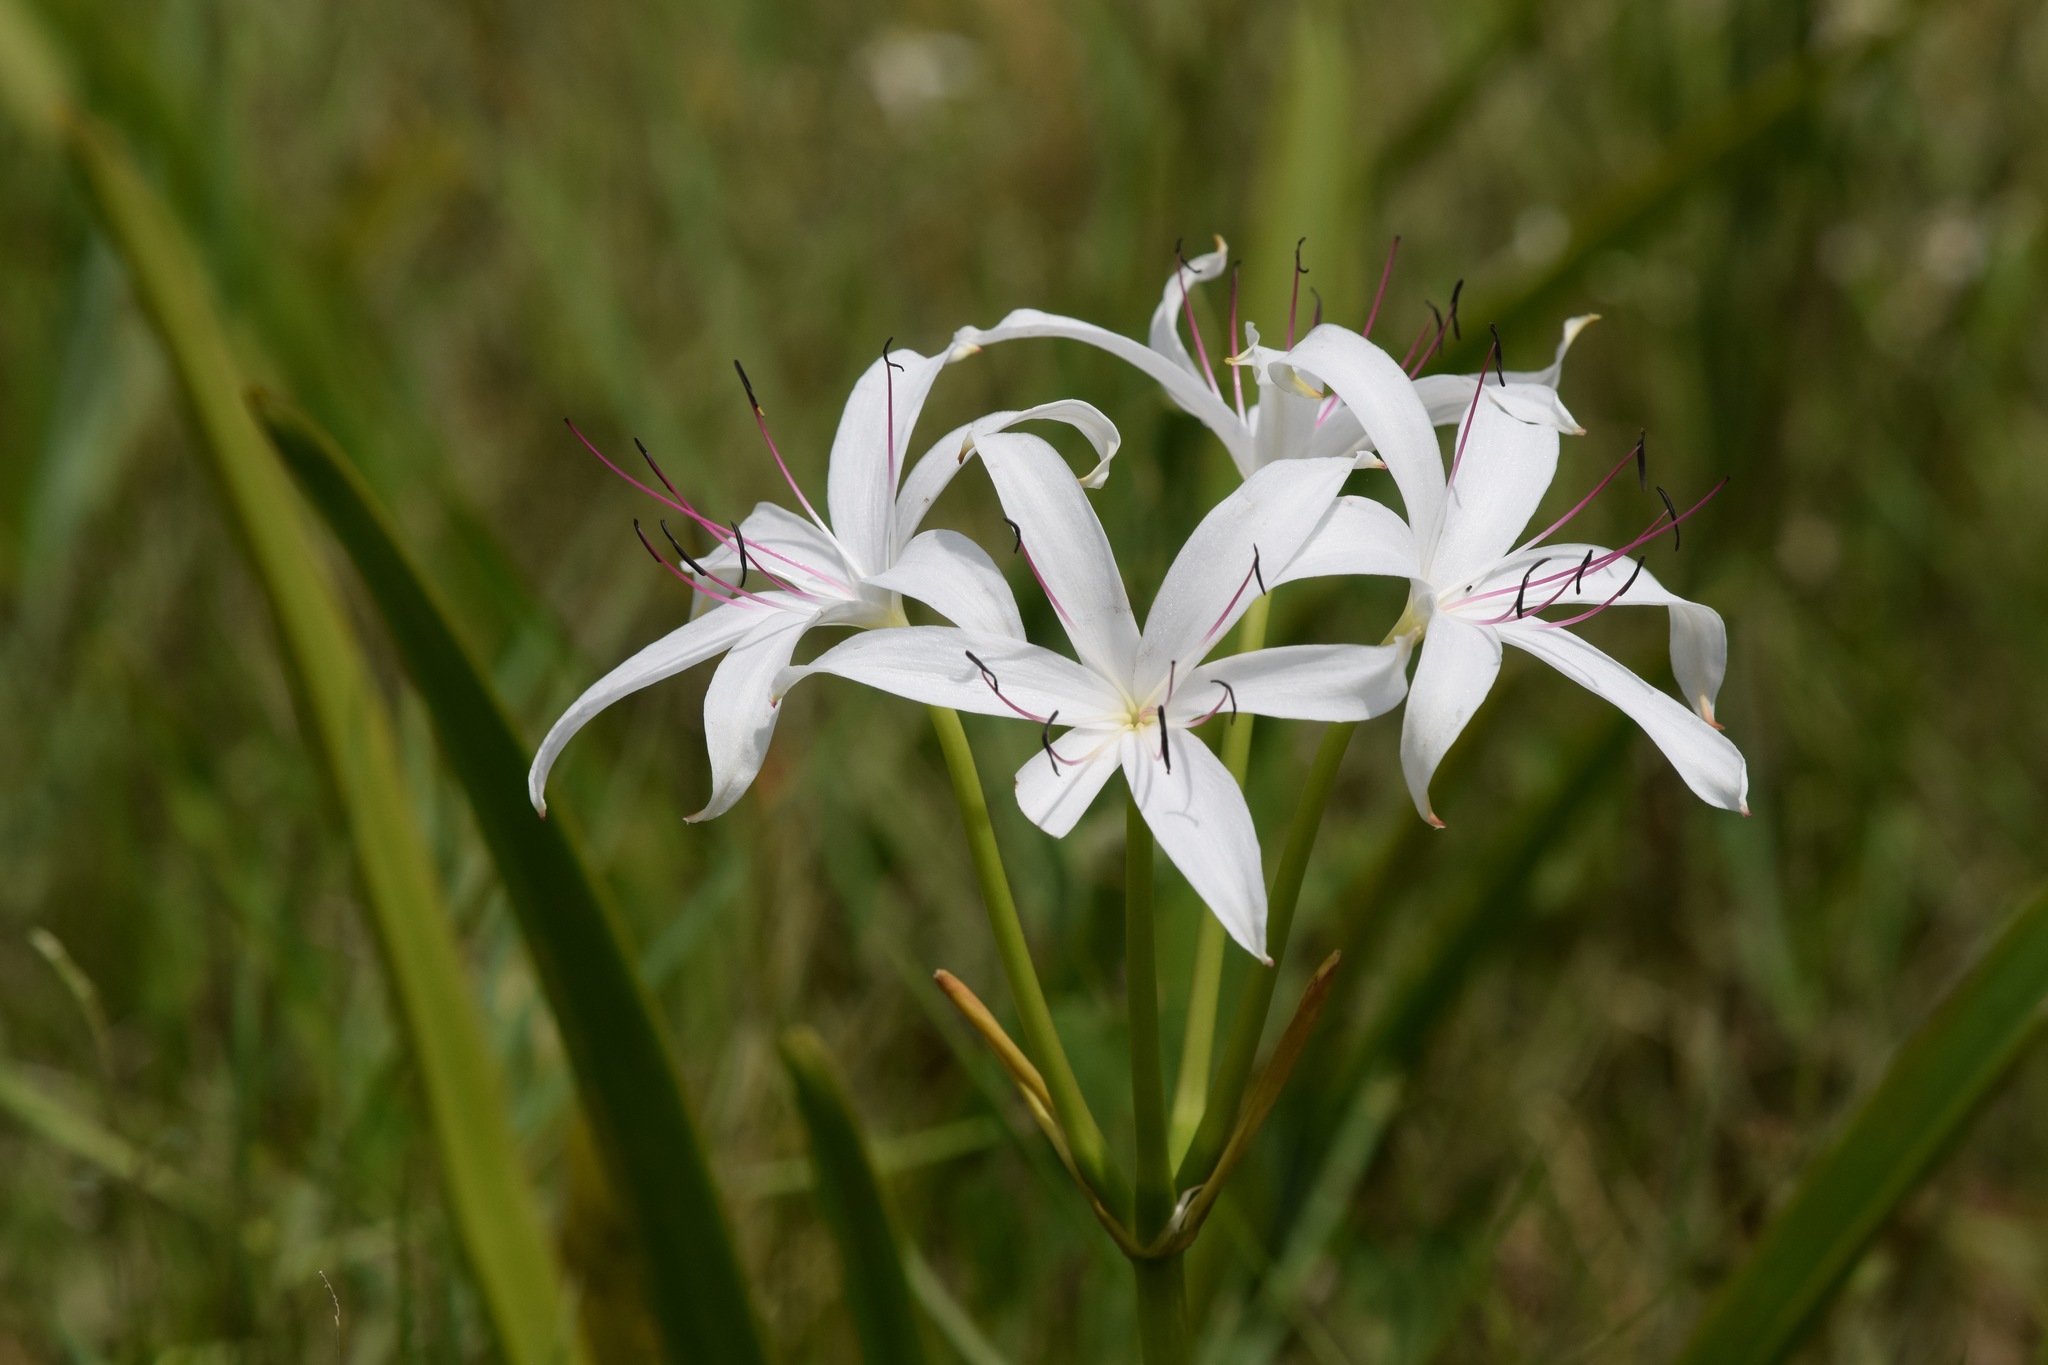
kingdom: Plantae
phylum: Tracheophyta
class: Liliopsida
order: Asparagales
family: Amaryllidaceae
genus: Crinum
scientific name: Crinum americanum
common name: Florida swamp-lily
